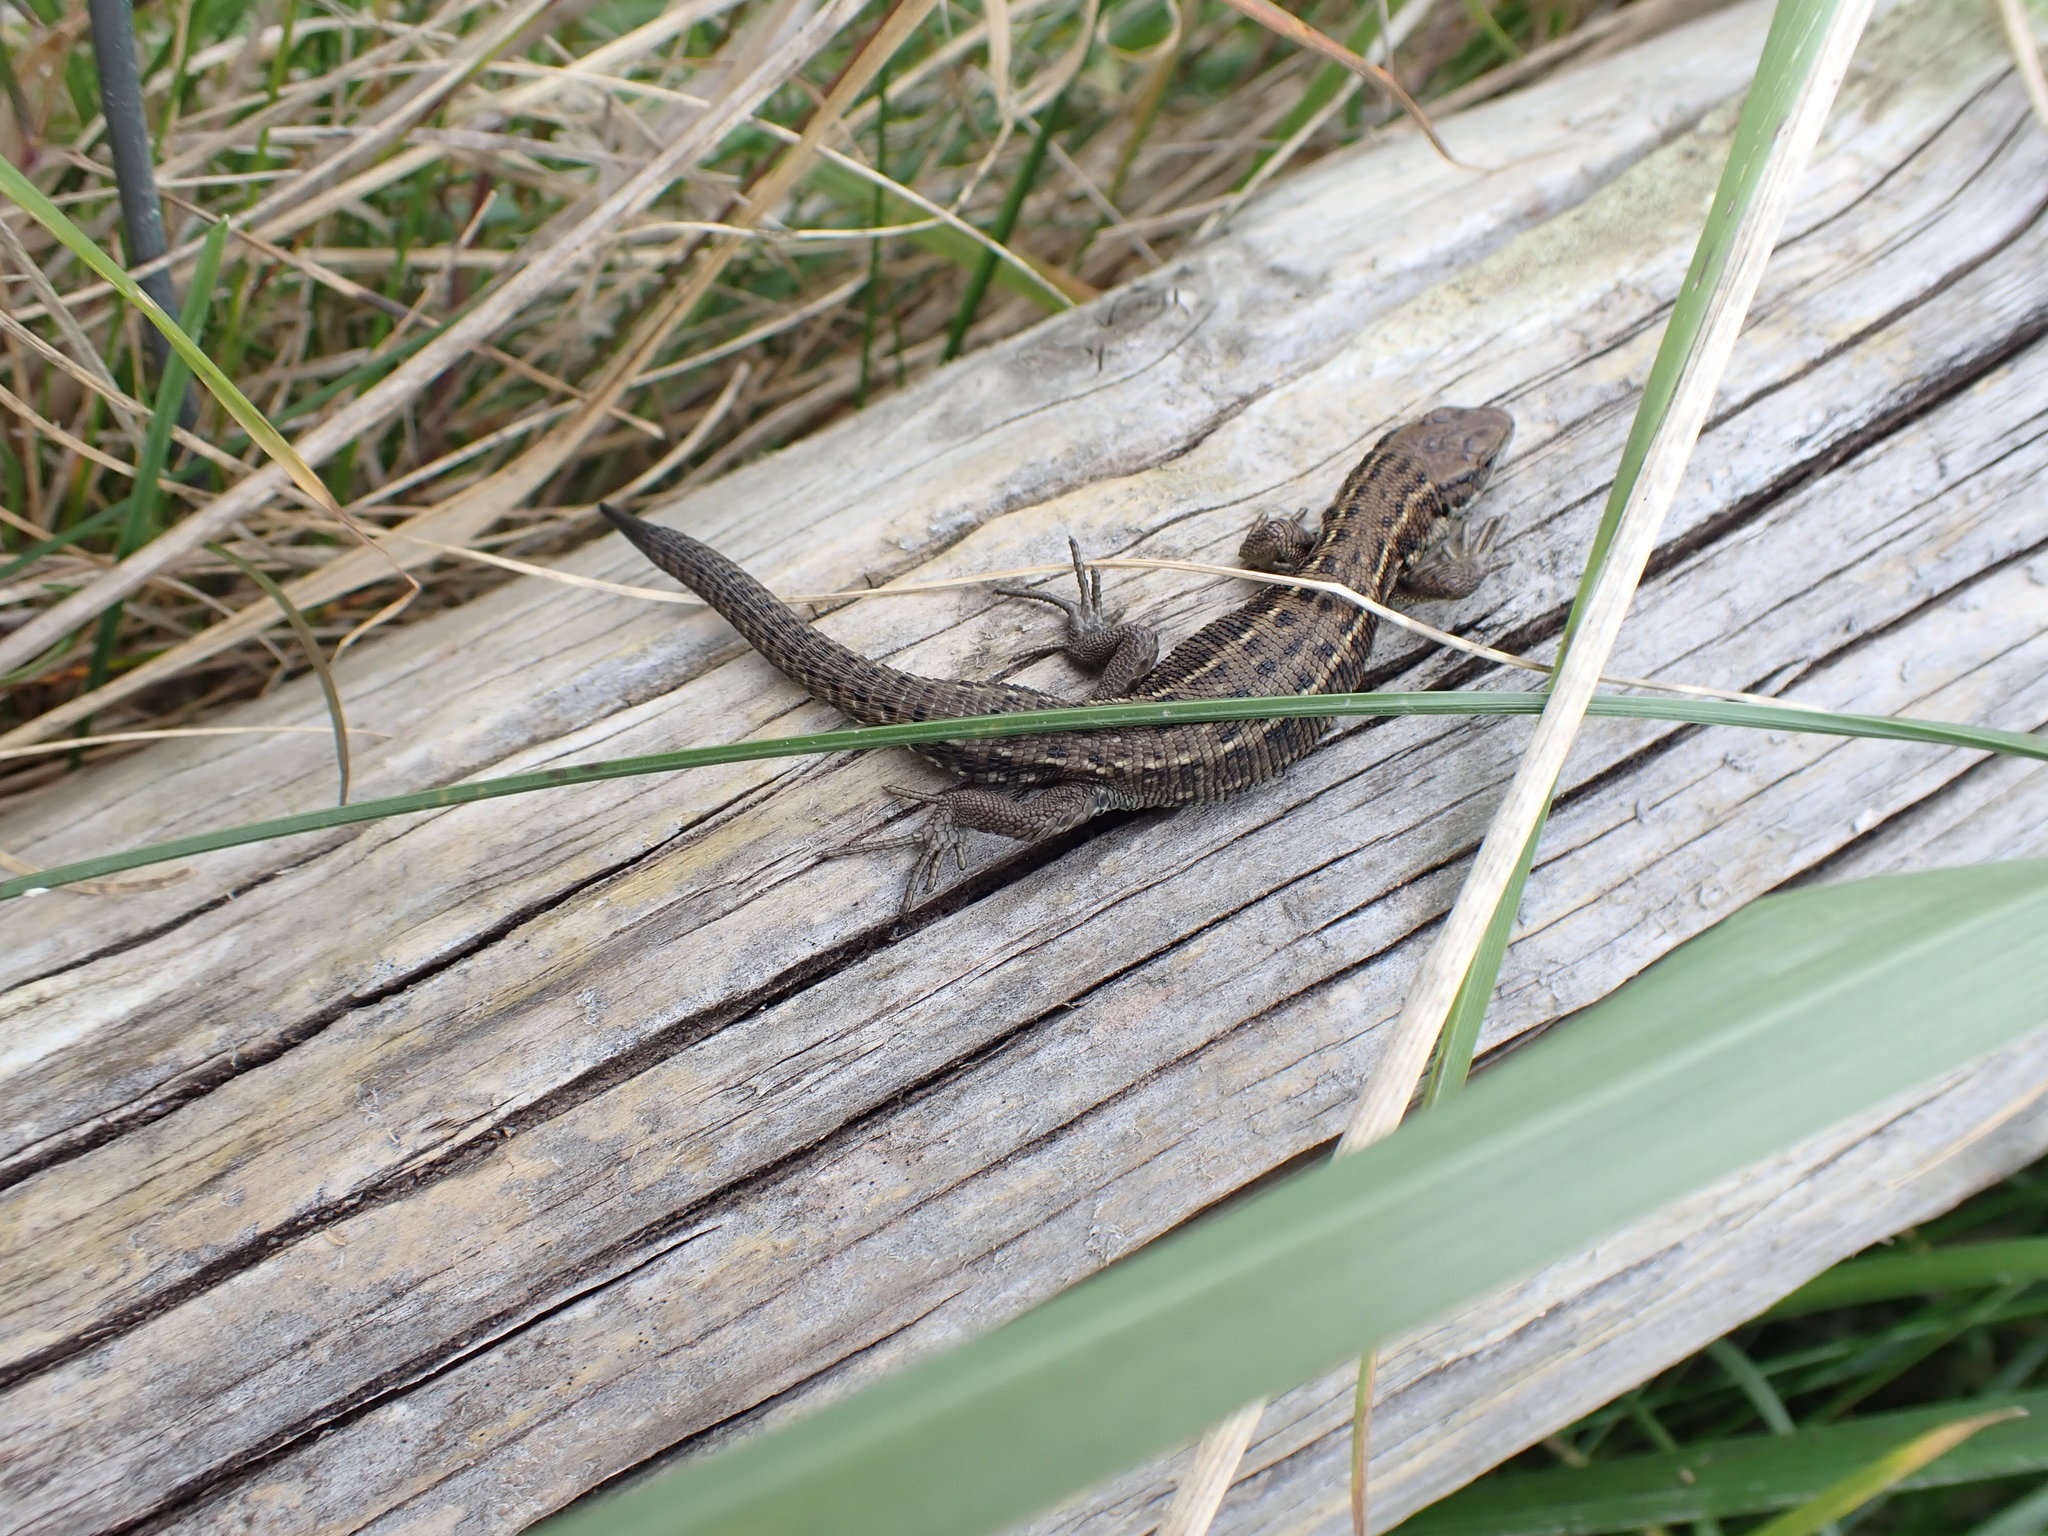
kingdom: Animalia
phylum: Chordata
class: Squamata
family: Lacertidae
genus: Zootoca
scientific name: Zootoca vivipara
